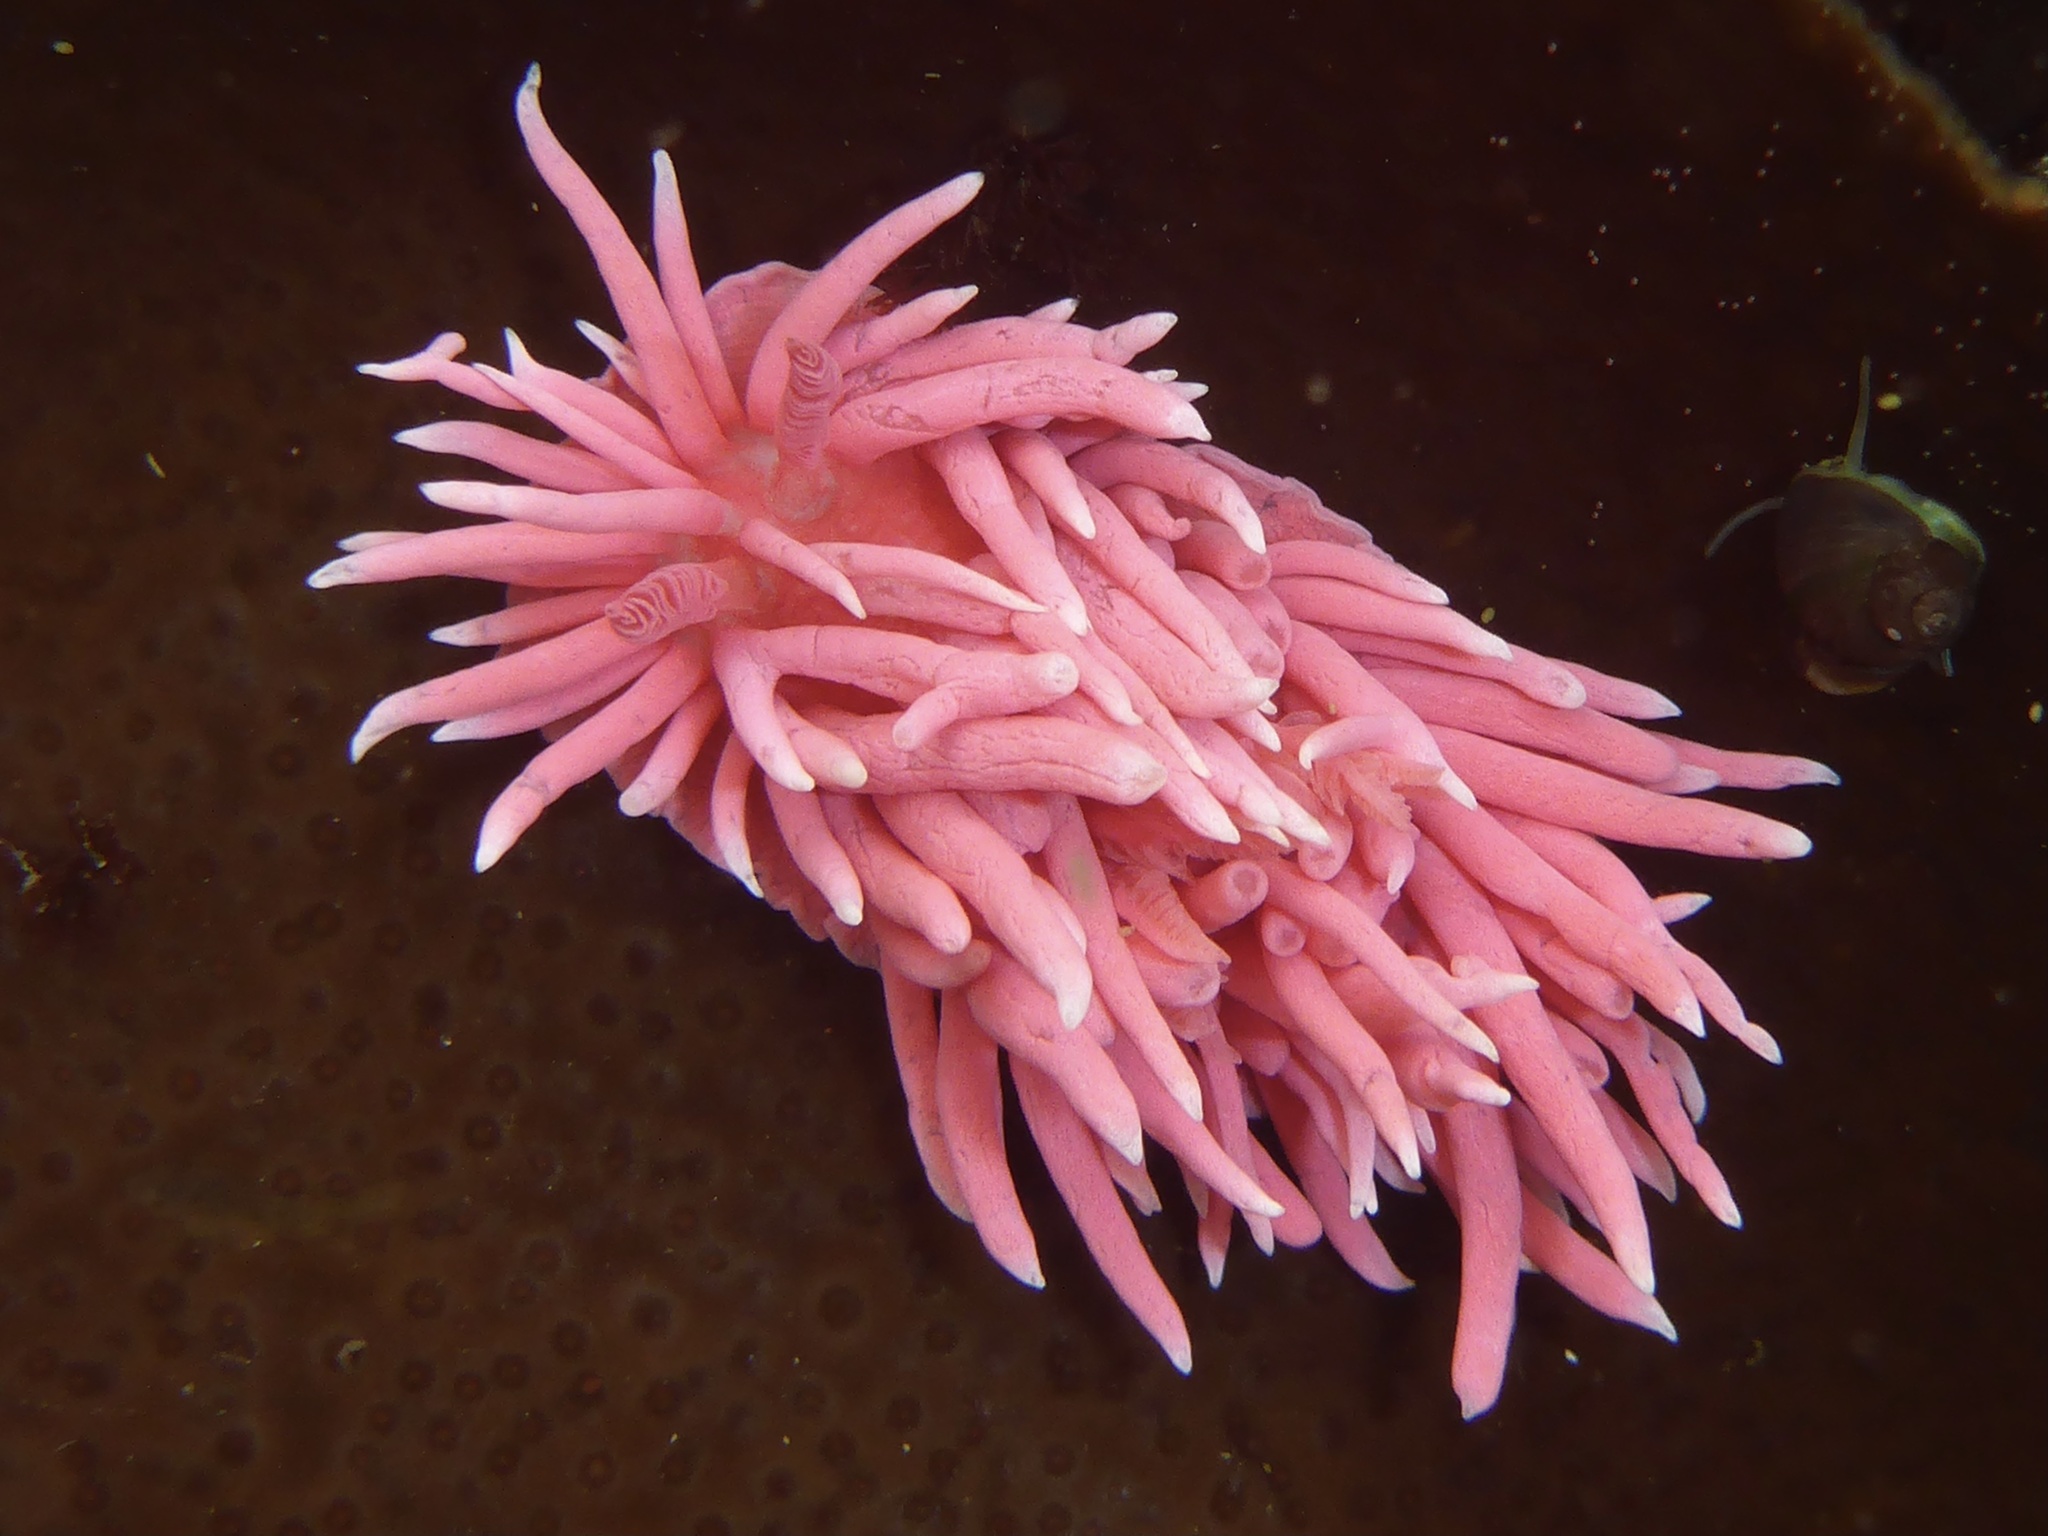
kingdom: Animalia
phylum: Mollusca
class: Gastropoda
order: Nudibranchia
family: Goniodorididae
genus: Okenia
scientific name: Okenia
